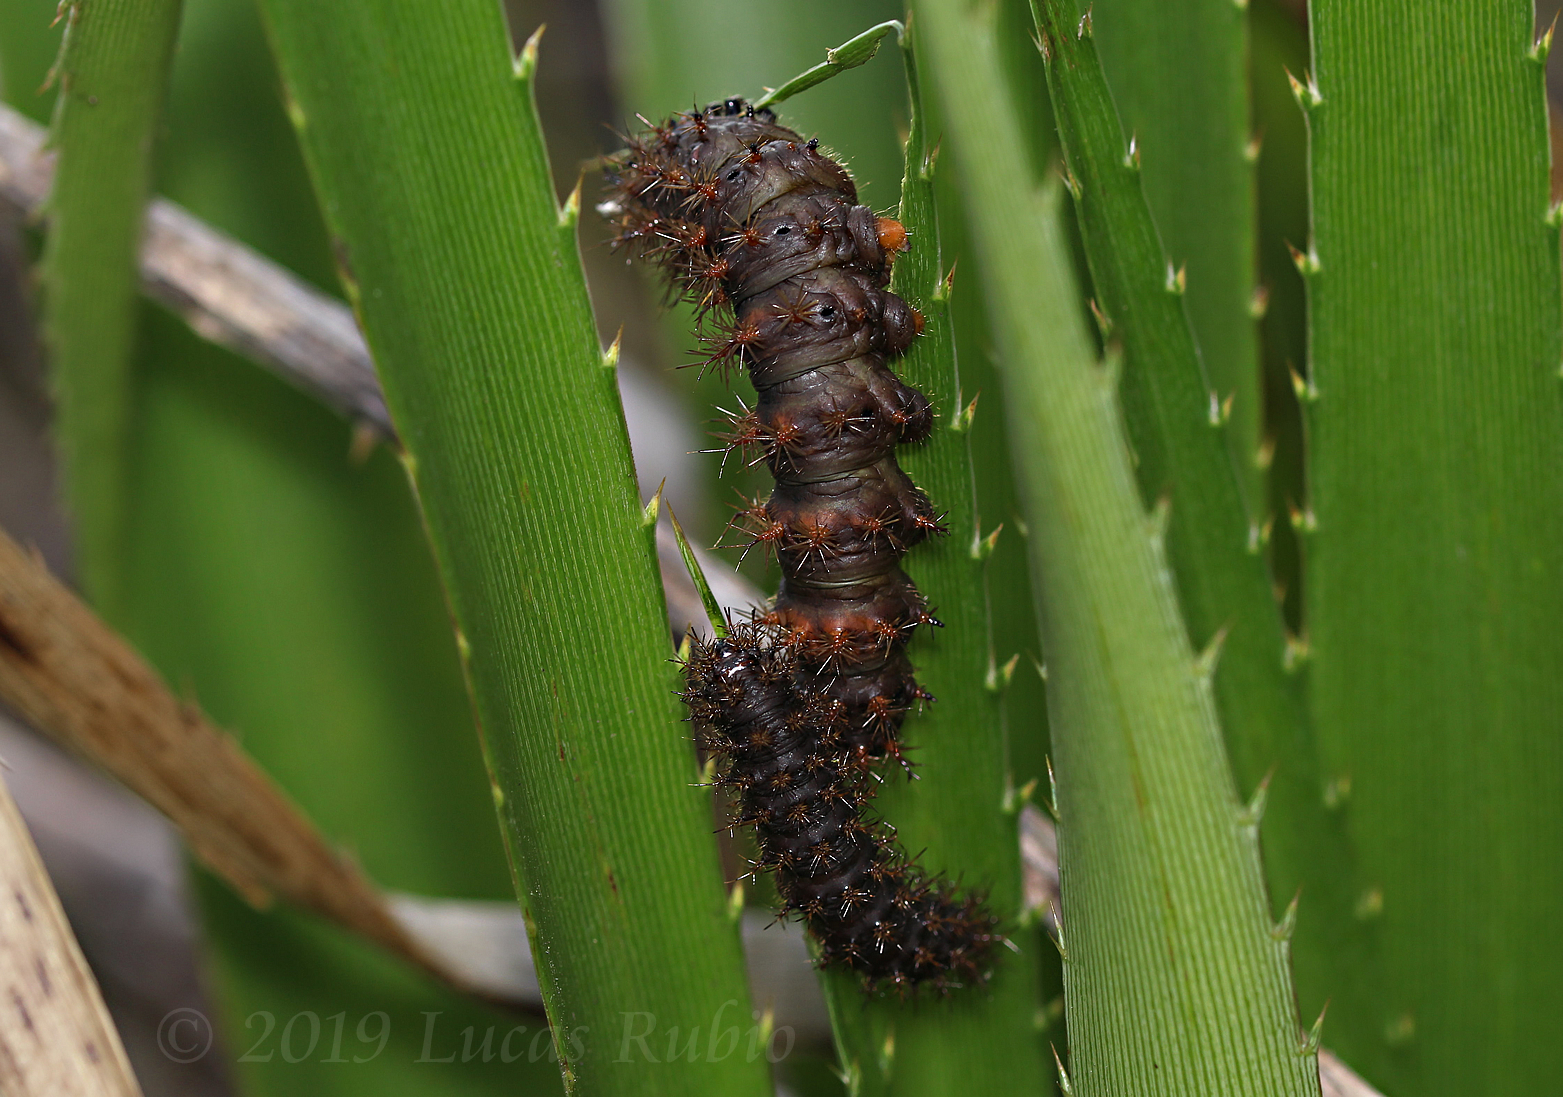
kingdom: Animalia
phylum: Arthropoda
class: Insecta
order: Lepidoptera
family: Saturniidae
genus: Heliconisa
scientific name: Heliconisa pagenstecheri
